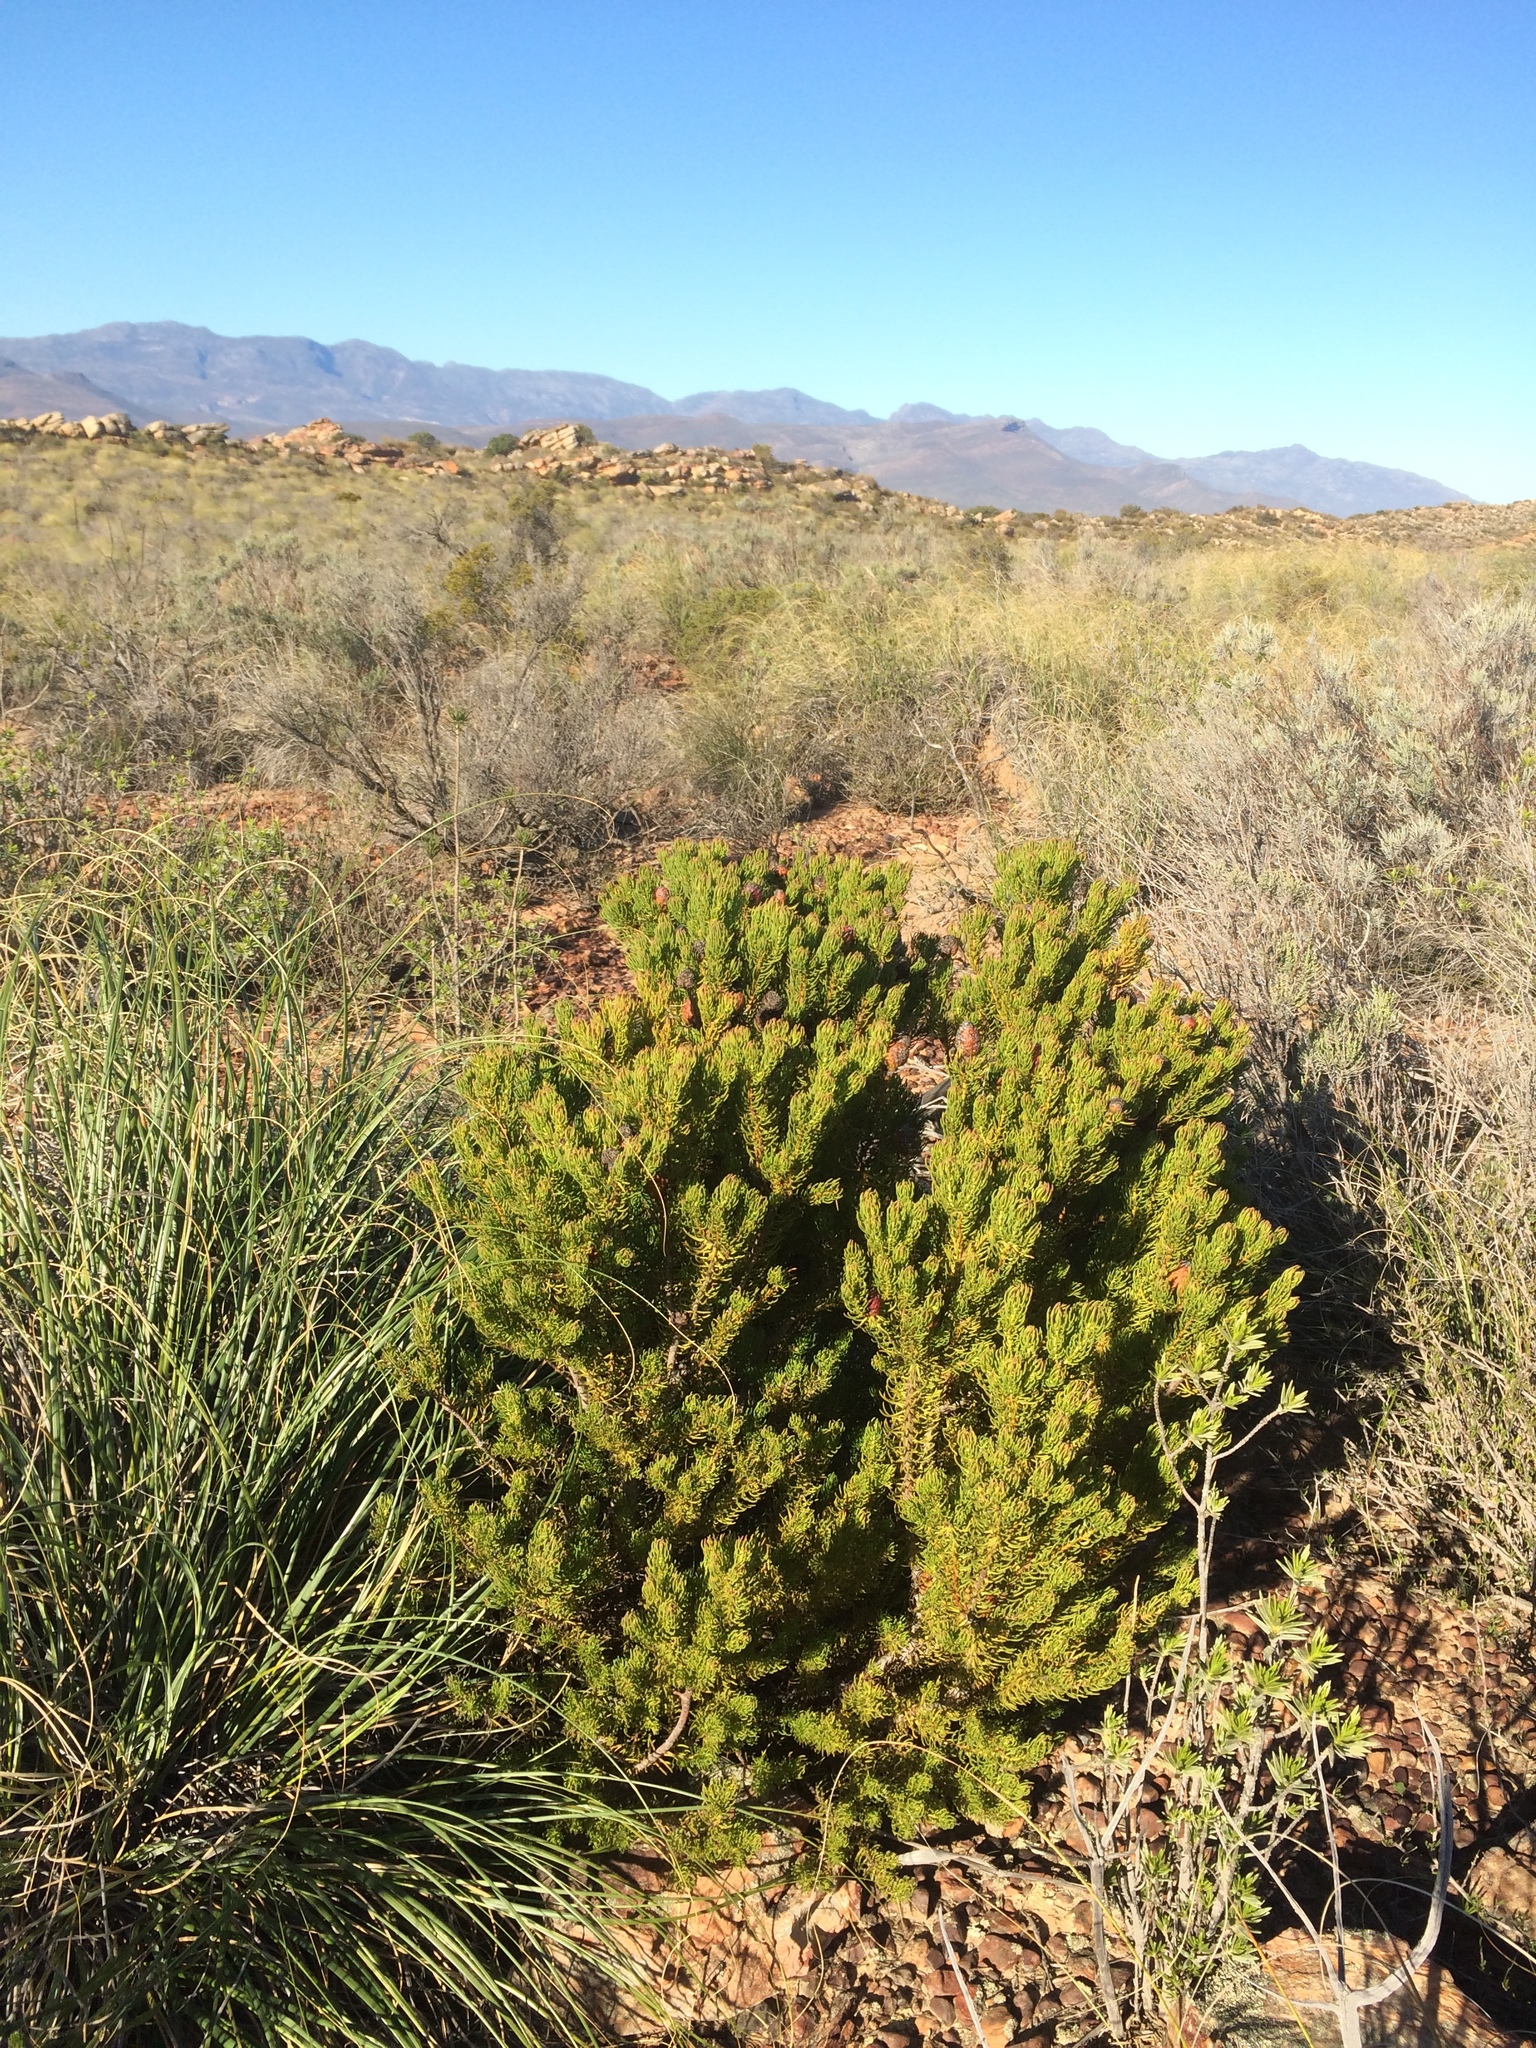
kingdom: Plantae
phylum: Tracheophyta
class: Magnoliopsida
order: Proteales
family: Proteaceae
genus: Leucadendron
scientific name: Leucadendron teretifolium
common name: Needle-leaf conebush
